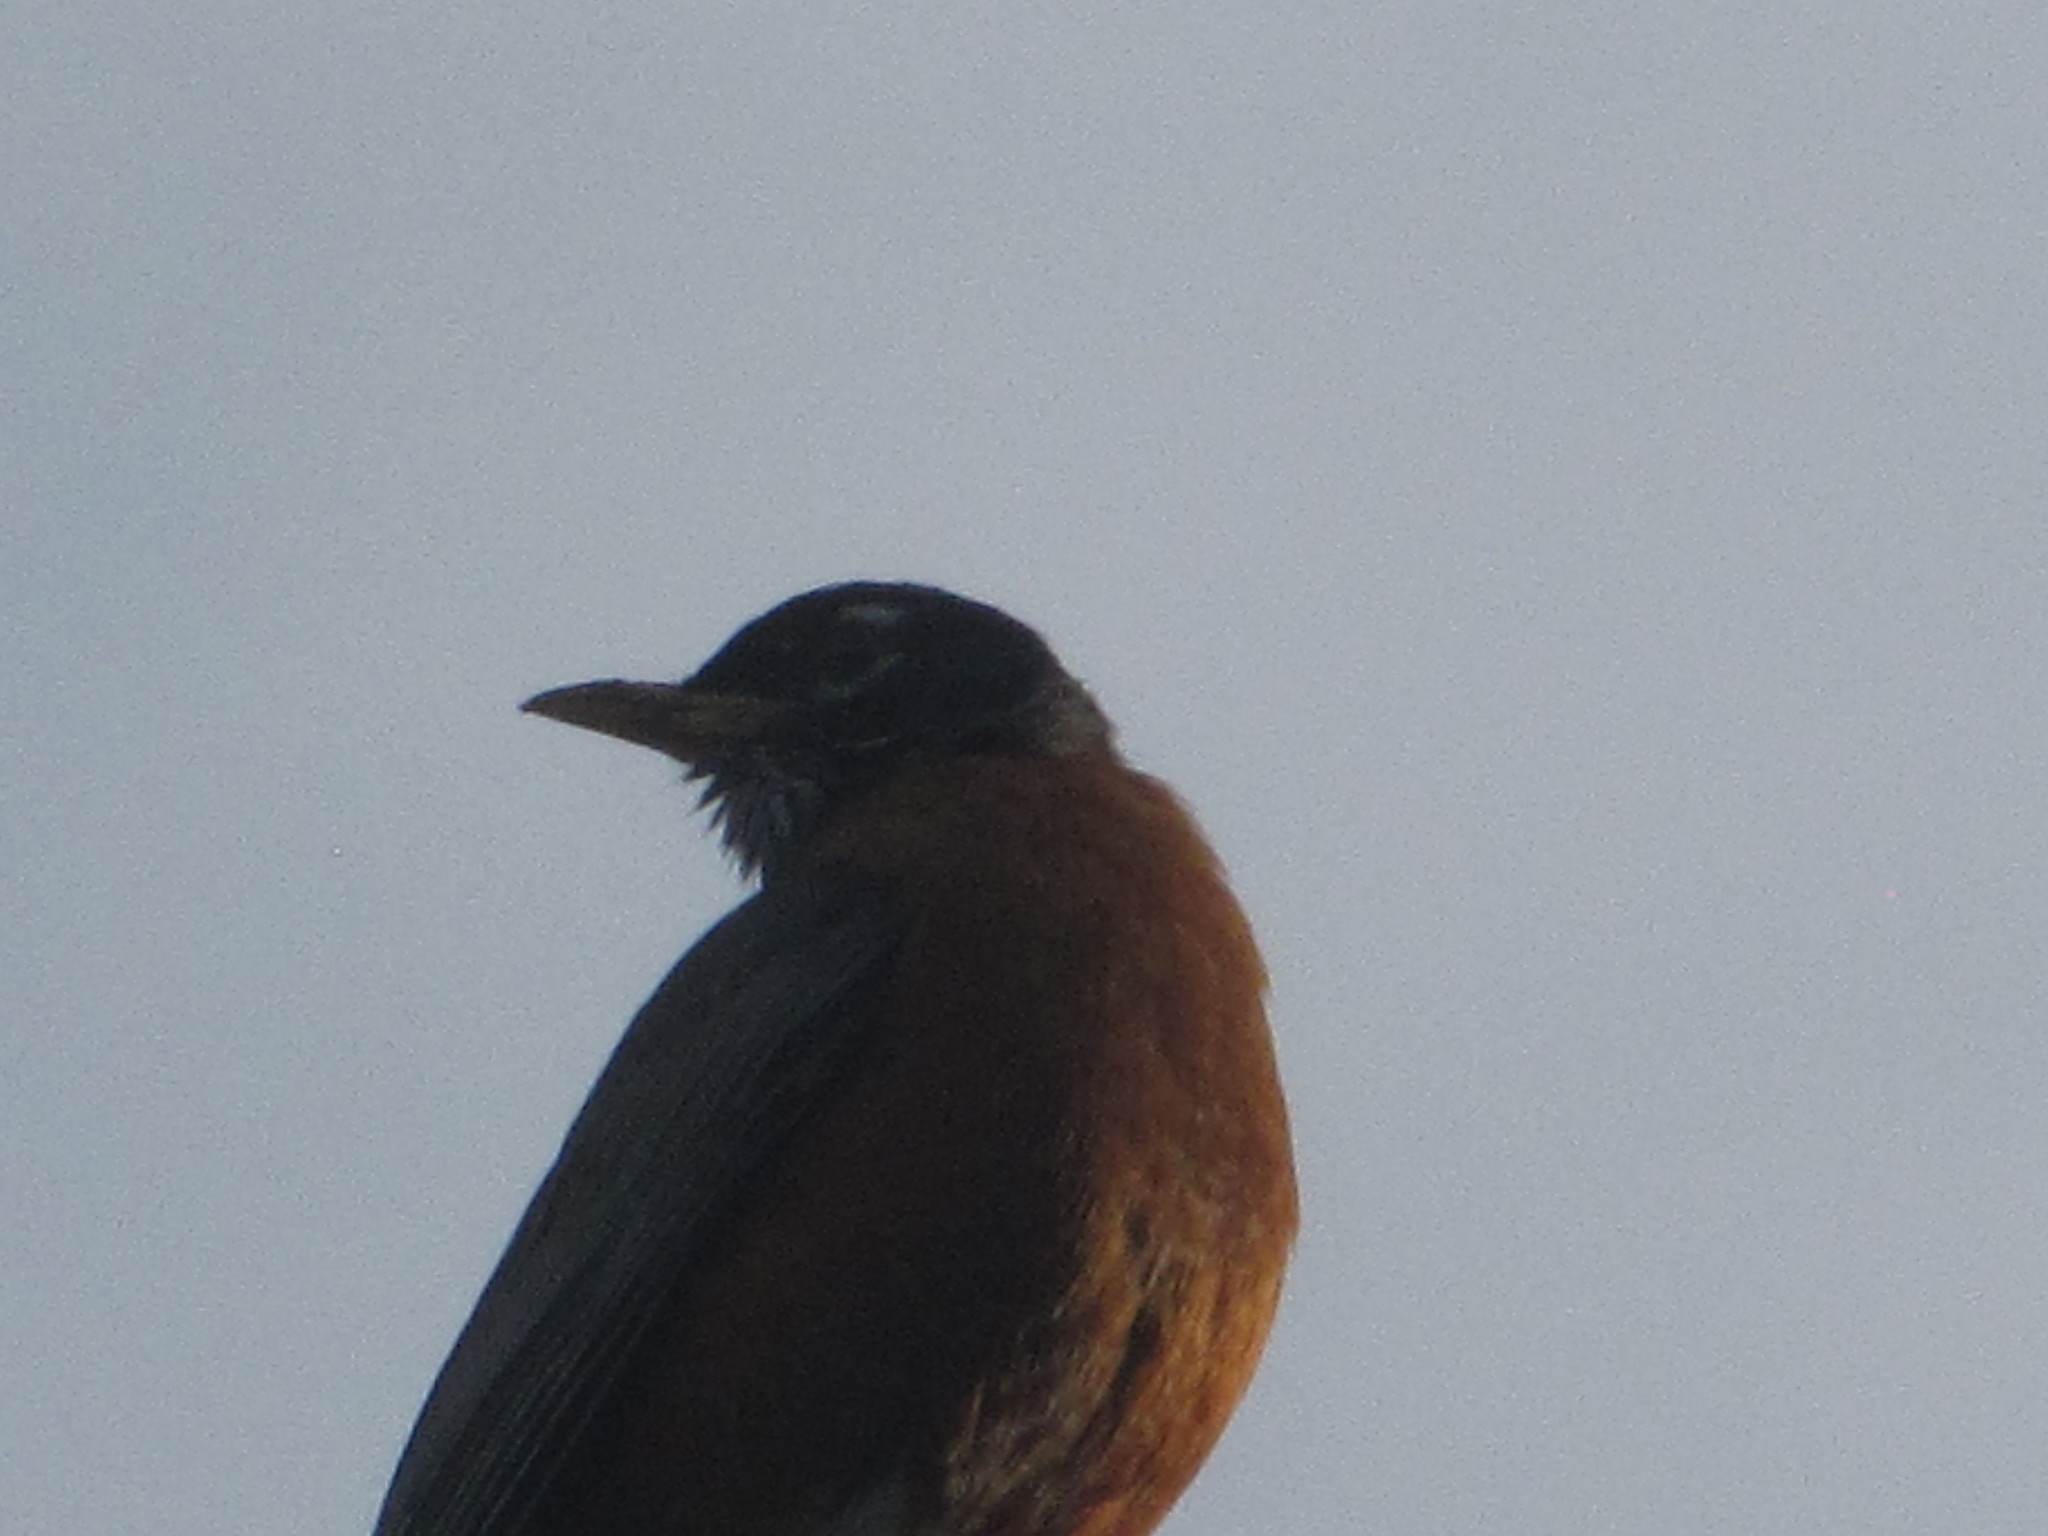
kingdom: Animalia
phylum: Chordata
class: Aves
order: Passeriformes
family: Turdidae
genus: Turdus
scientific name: Turdus migratorius
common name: American robin
